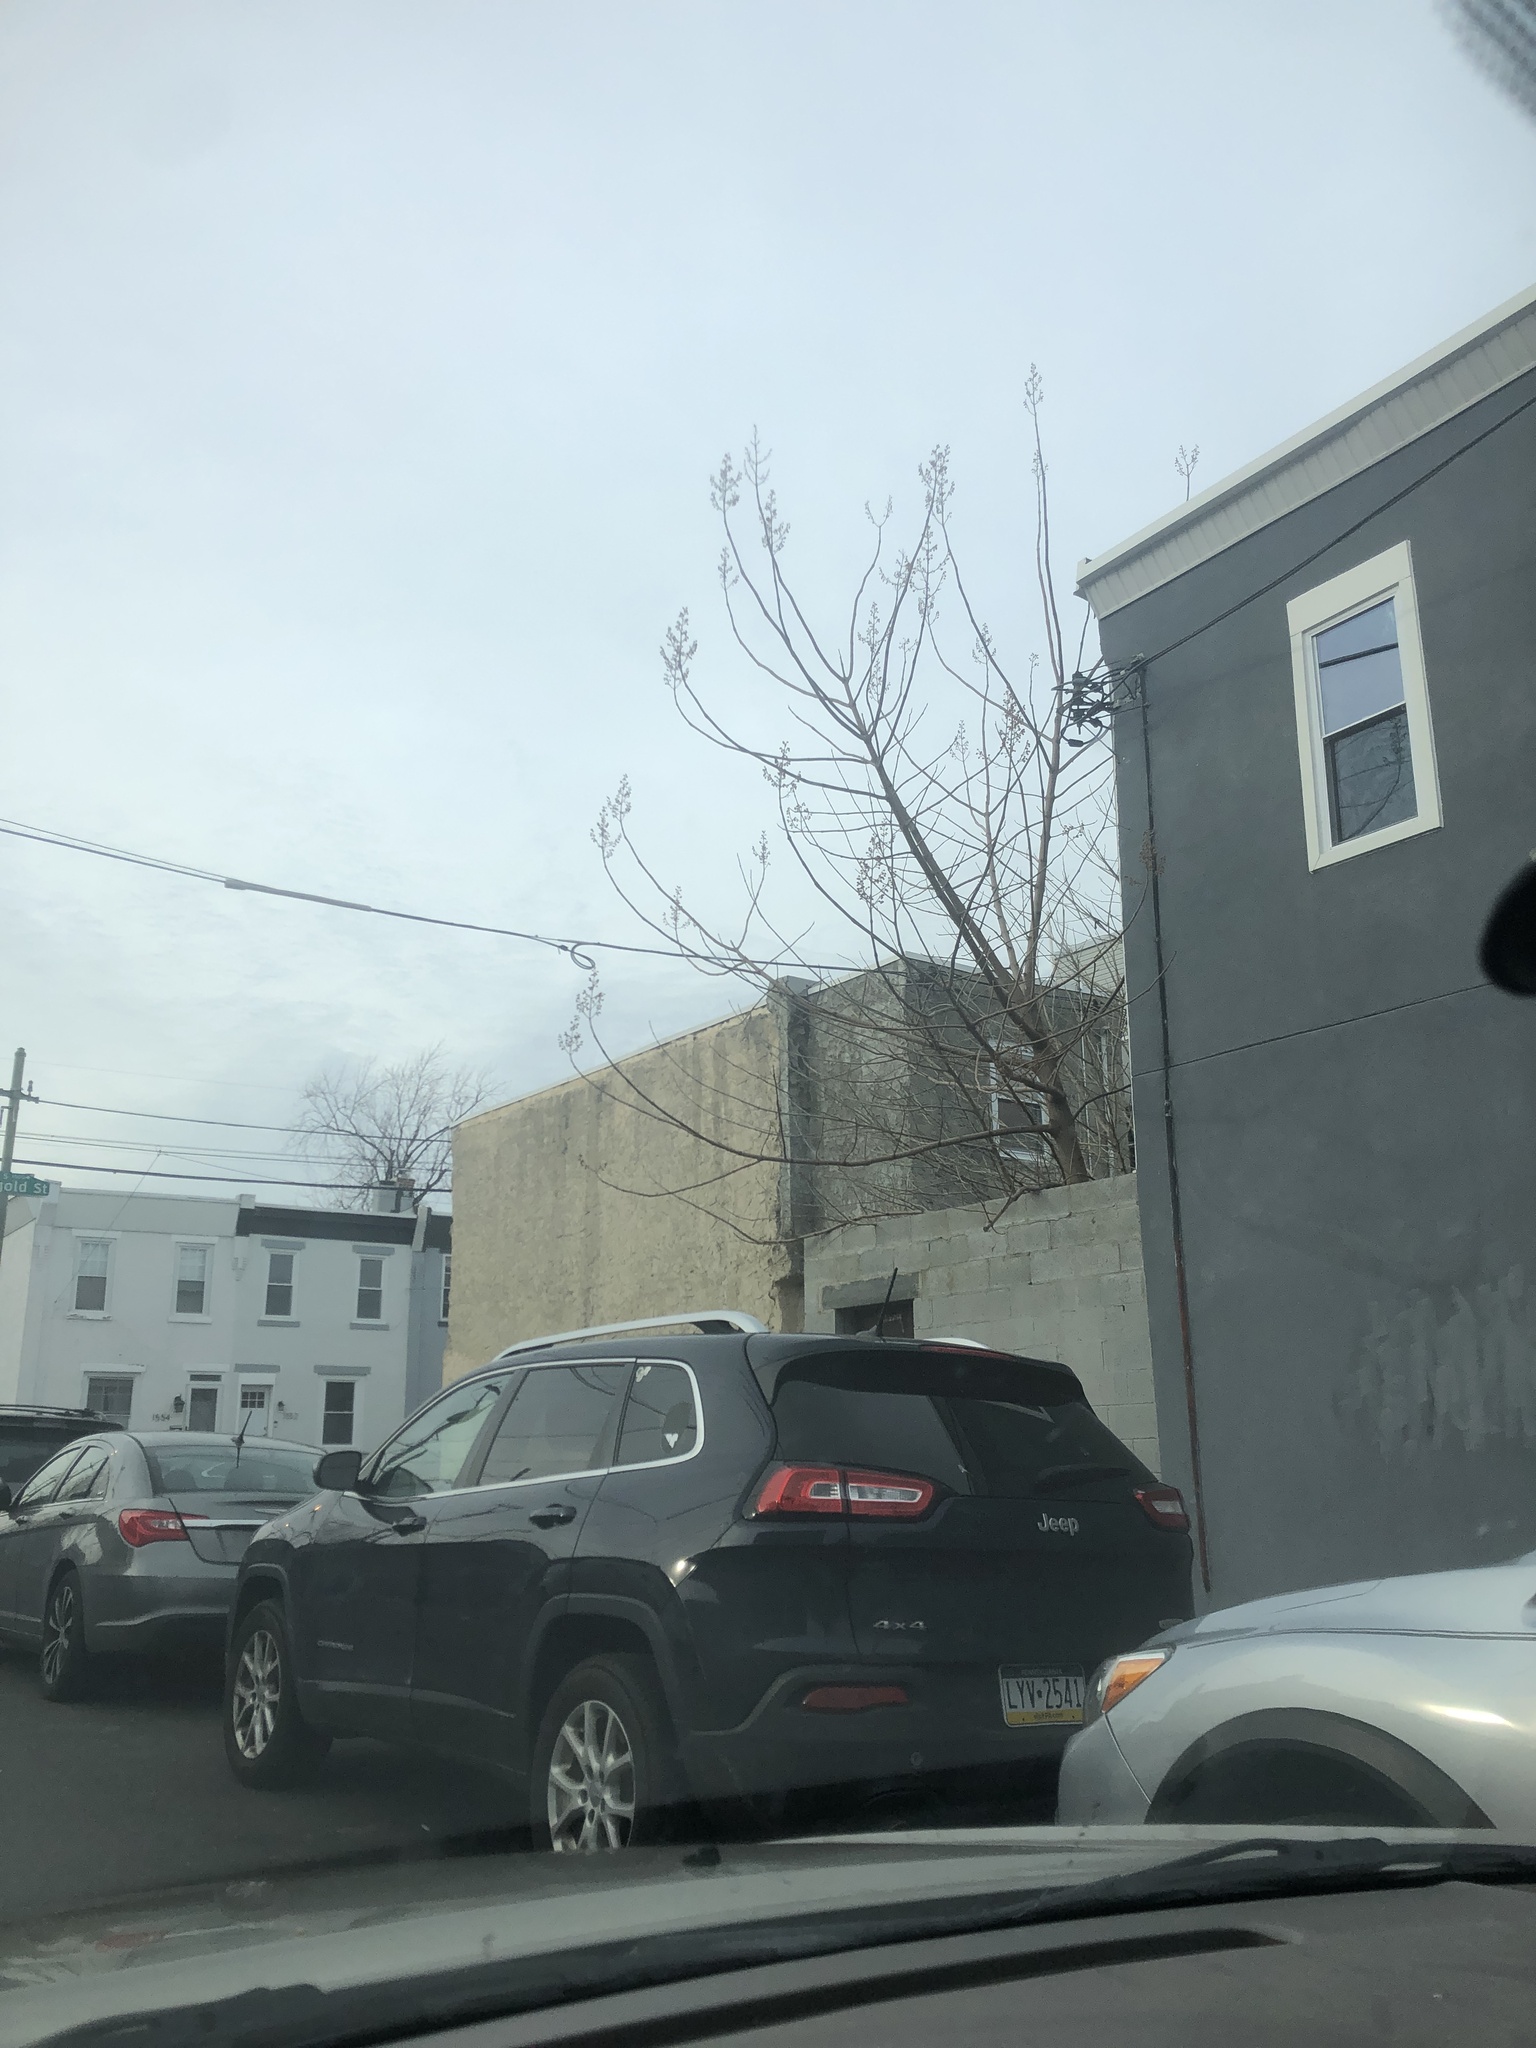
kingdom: Plantae
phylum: Tracheophyta
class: Magnoliopsida
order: Lamiales
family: Paulowniaceae
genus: Paulownia
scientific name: Paulownia tomentosa
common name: Foxglove-tree
